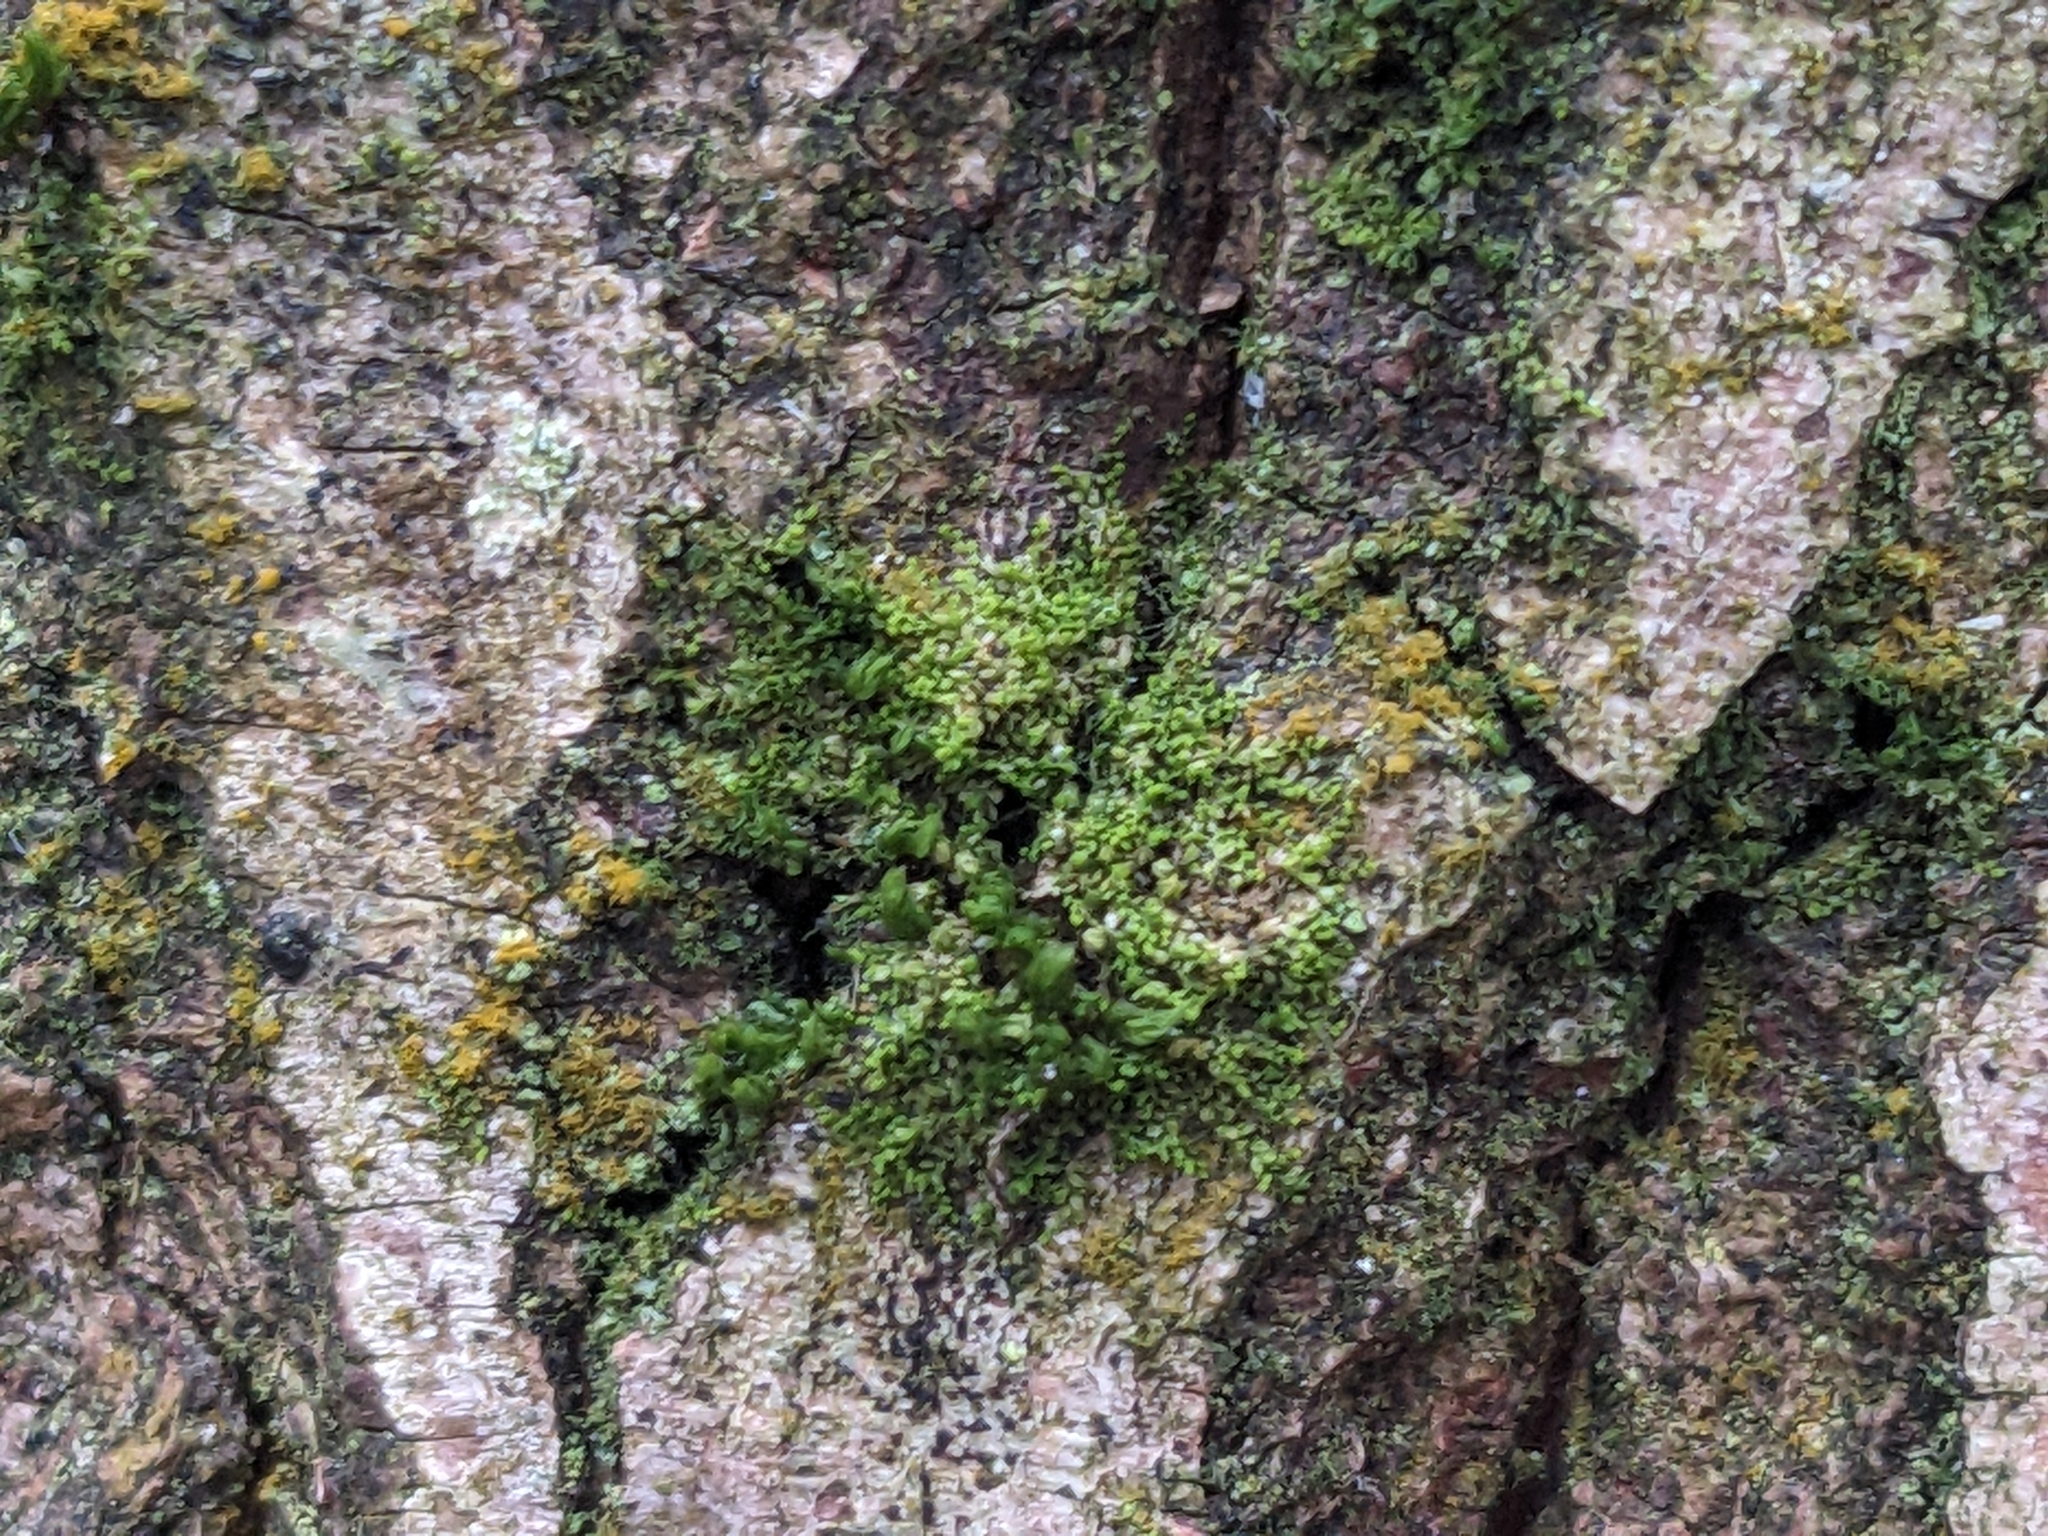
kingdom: Plantae
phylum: Marchantiophyta
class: Jungermanniopsida
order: Porellales
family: Lejeuneaceae
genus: Myriocoleopsis
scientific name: Myriocoleopsis minutissima
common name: Minute pouncewort
